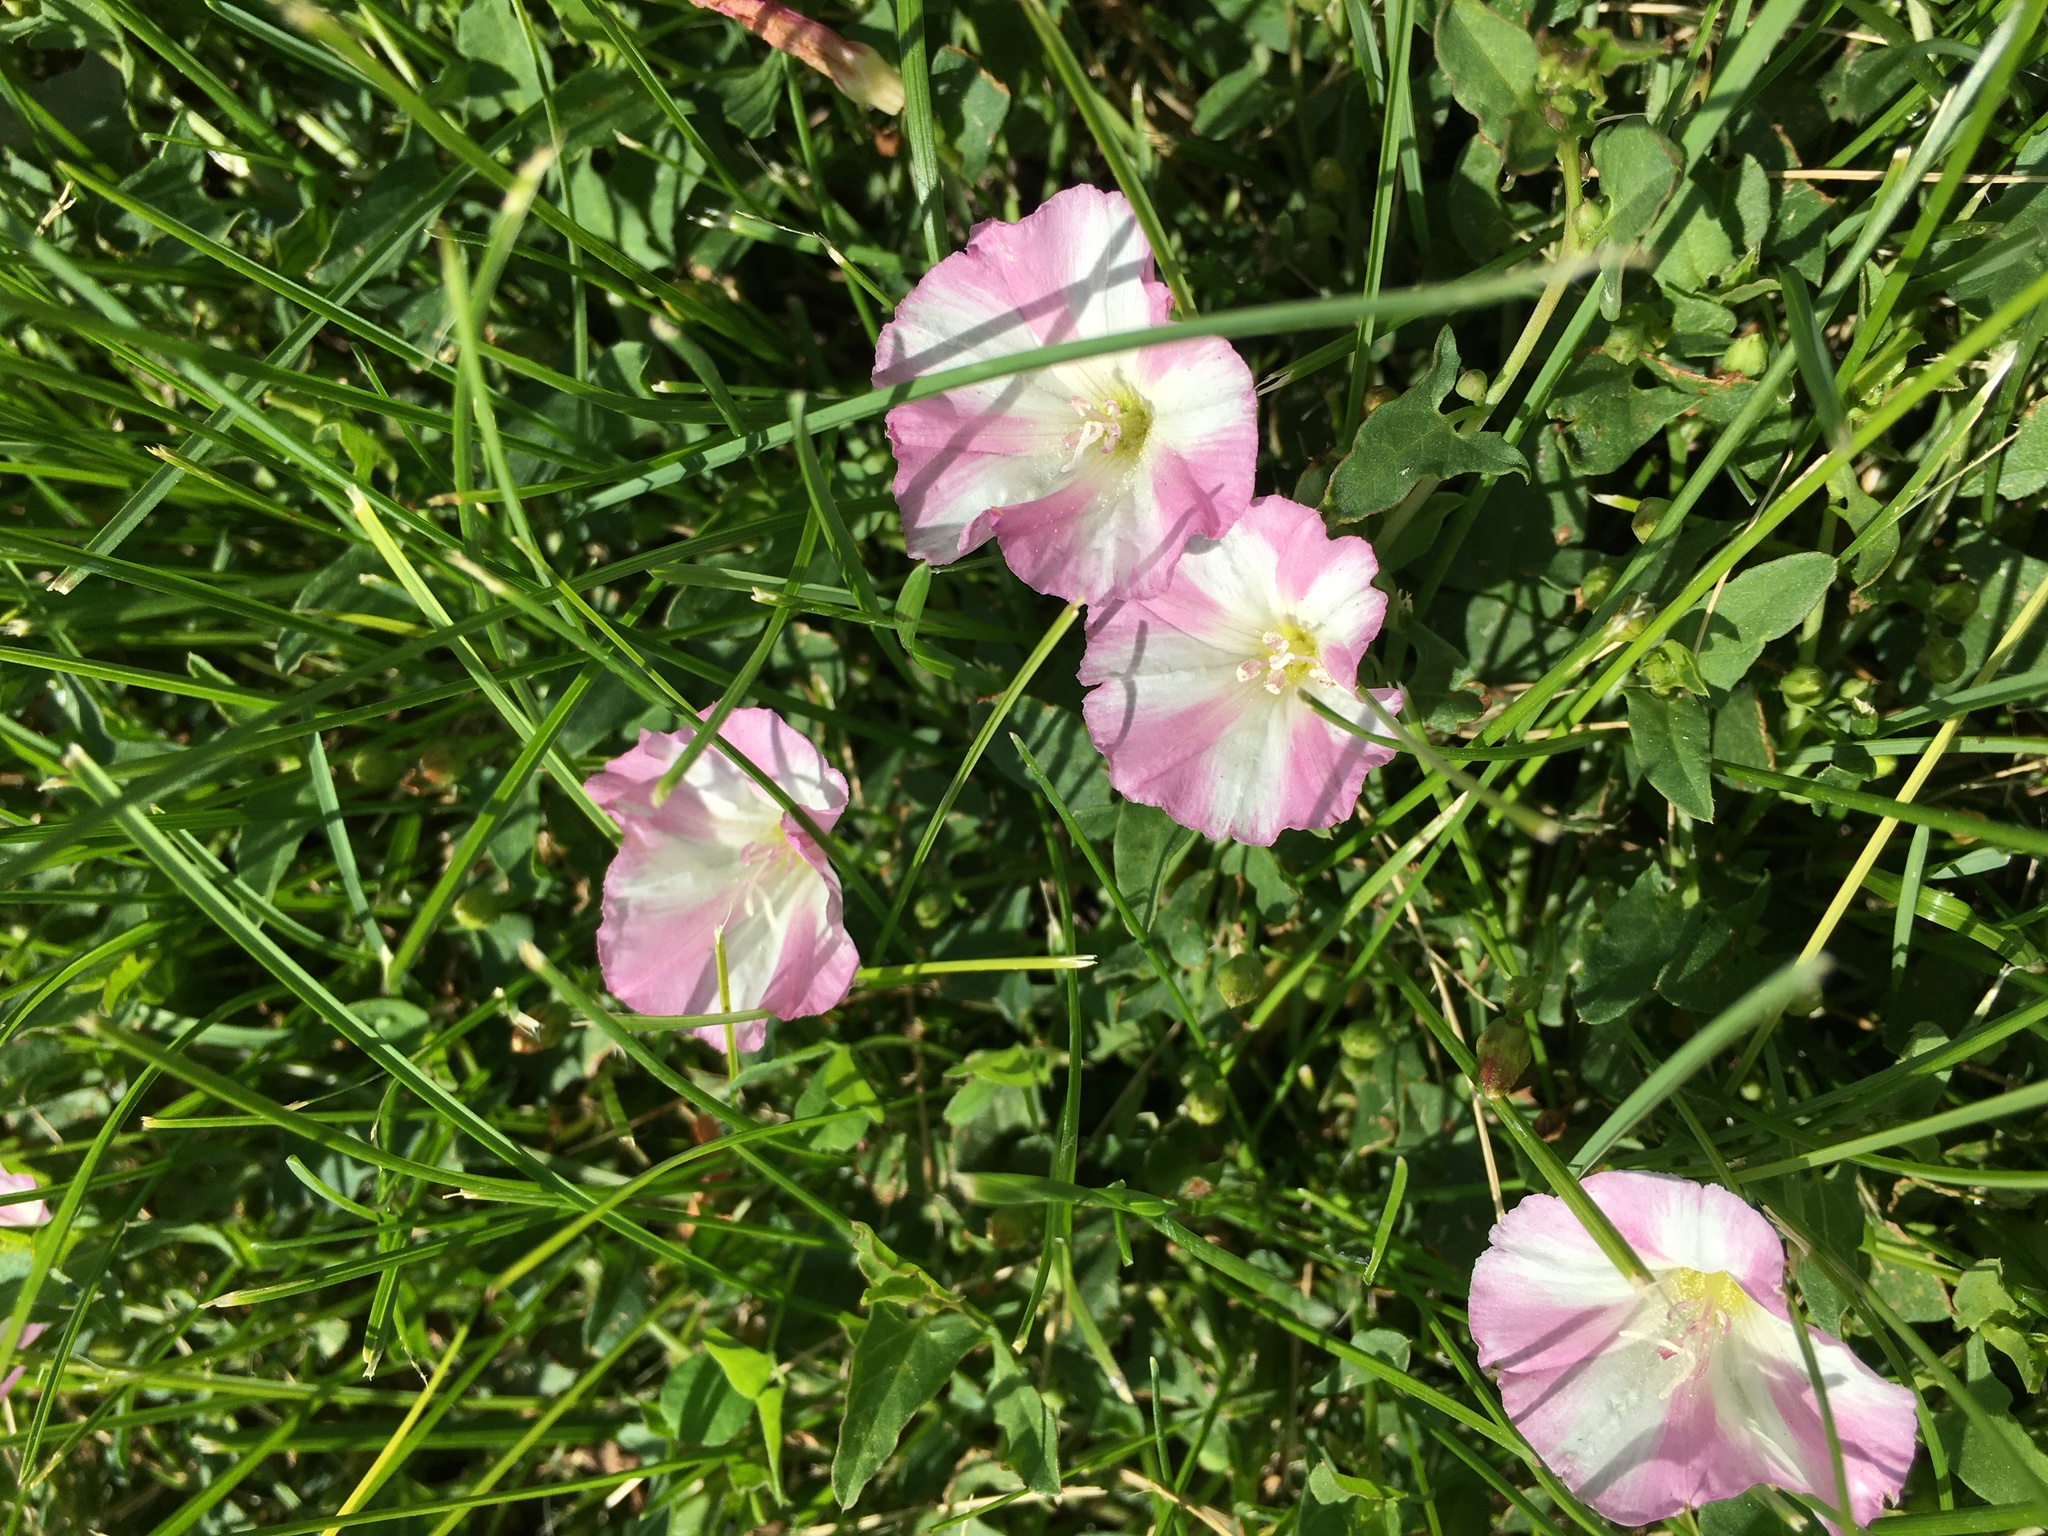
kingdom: Plantae
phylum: Tracheophyta
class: Magnoliopsida
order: Solanales
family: Convolvulaceae
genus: Convolvulus
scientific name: Convolvulus arvensis
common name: Field bindweed
